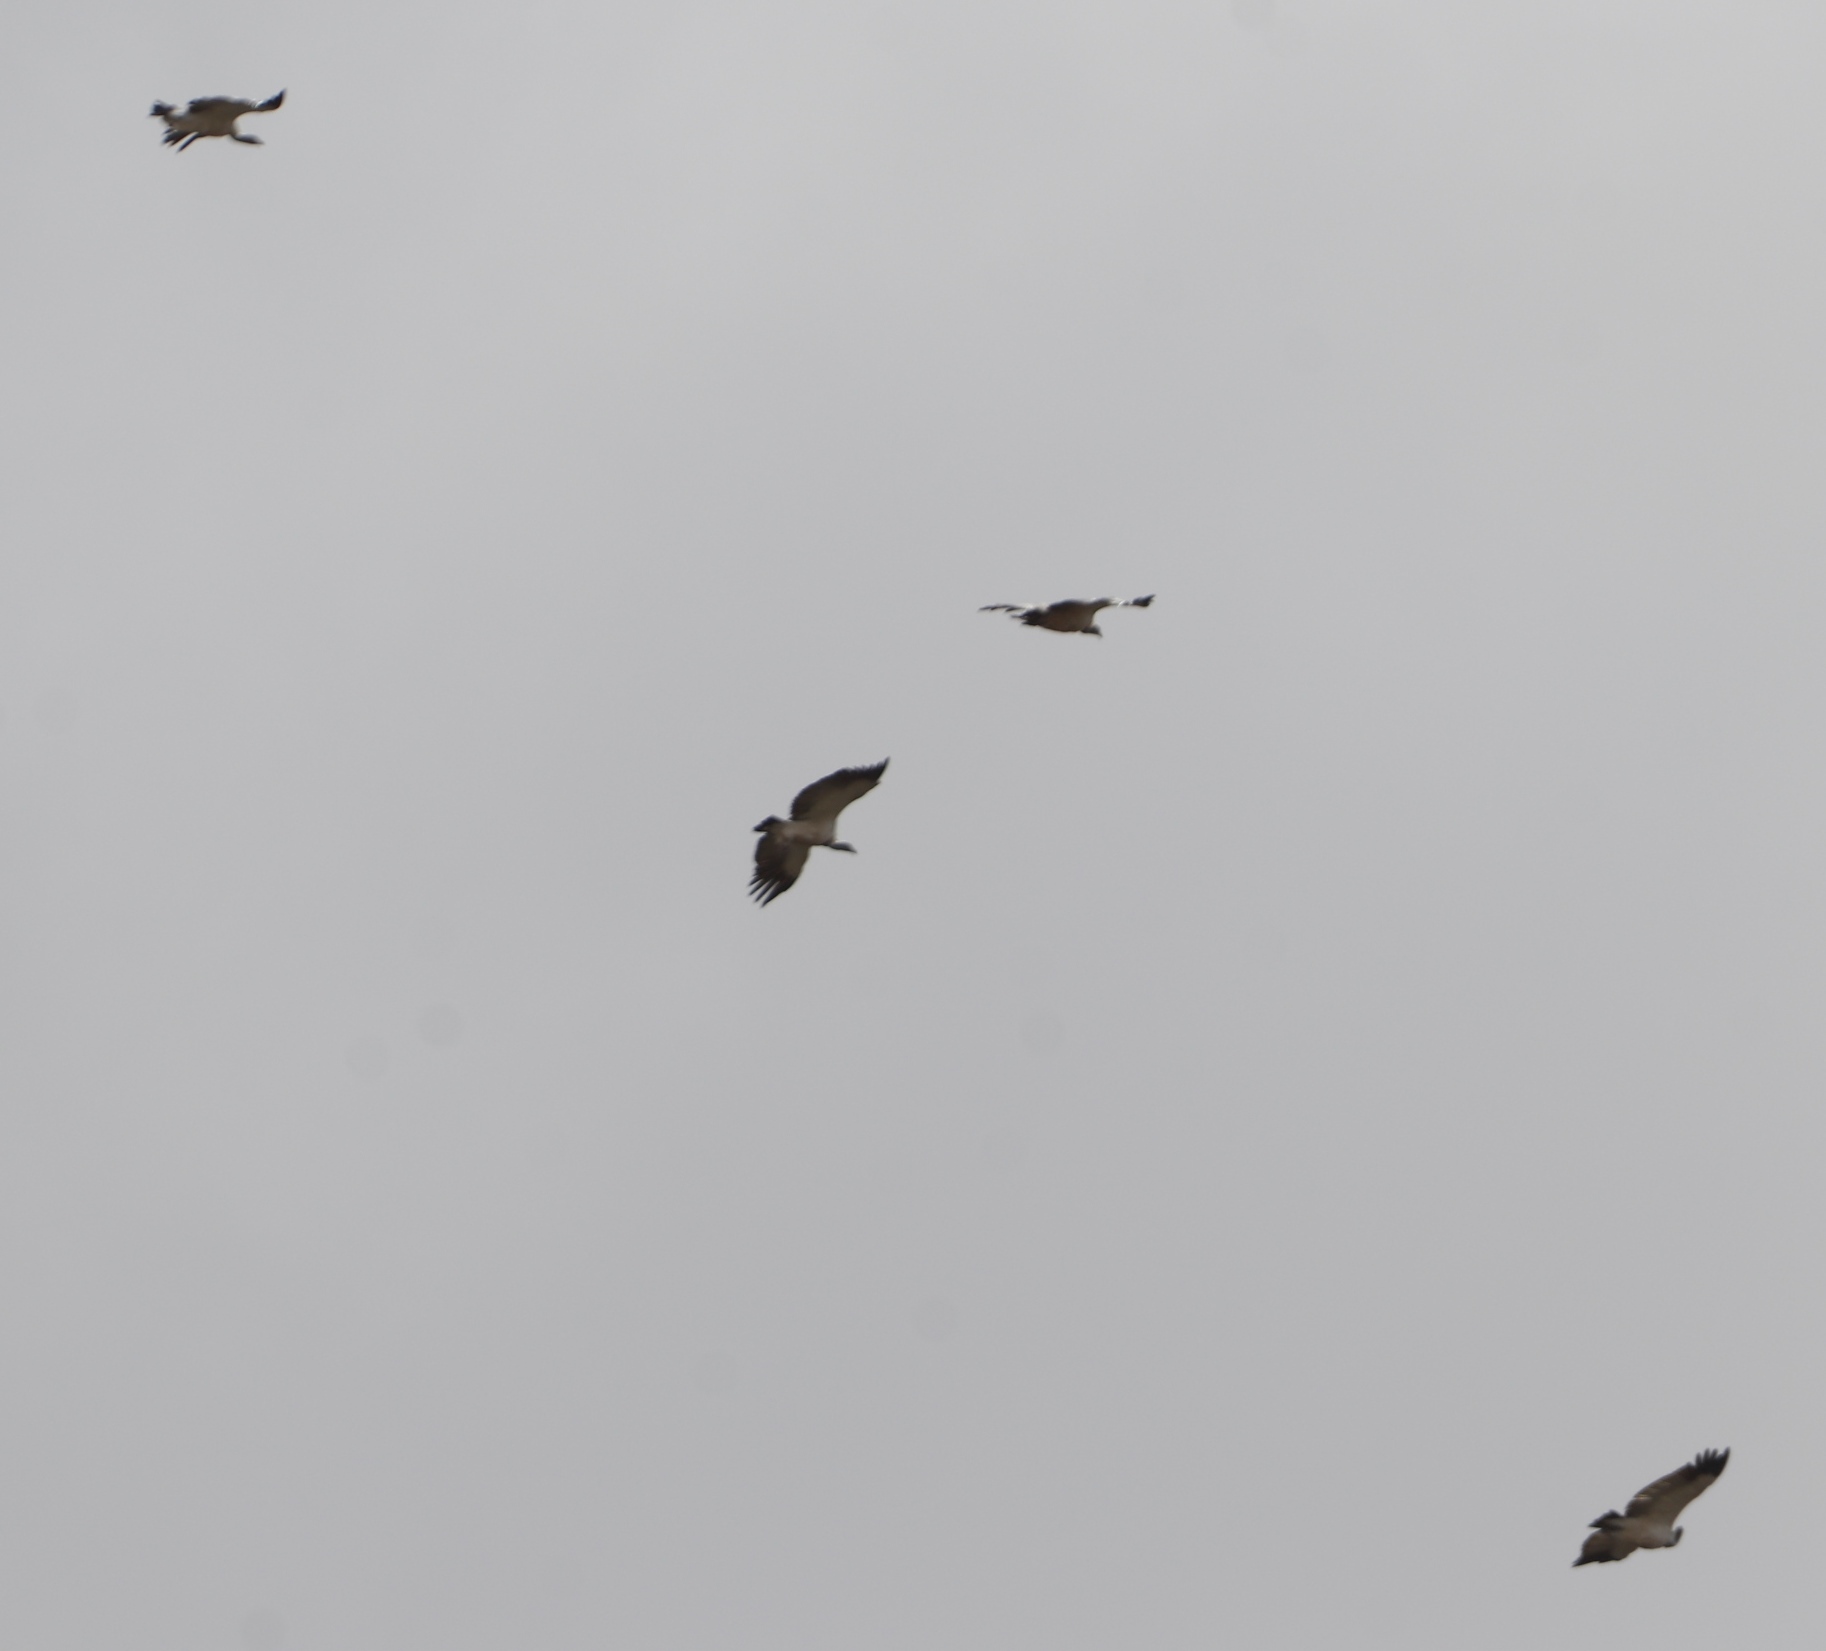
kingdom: Animalia
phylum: Chordata
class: Aves
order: Accipitriformes
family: Accipitridae
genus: Gyps
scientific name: Gyps coprotheres
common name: Cape vulture
